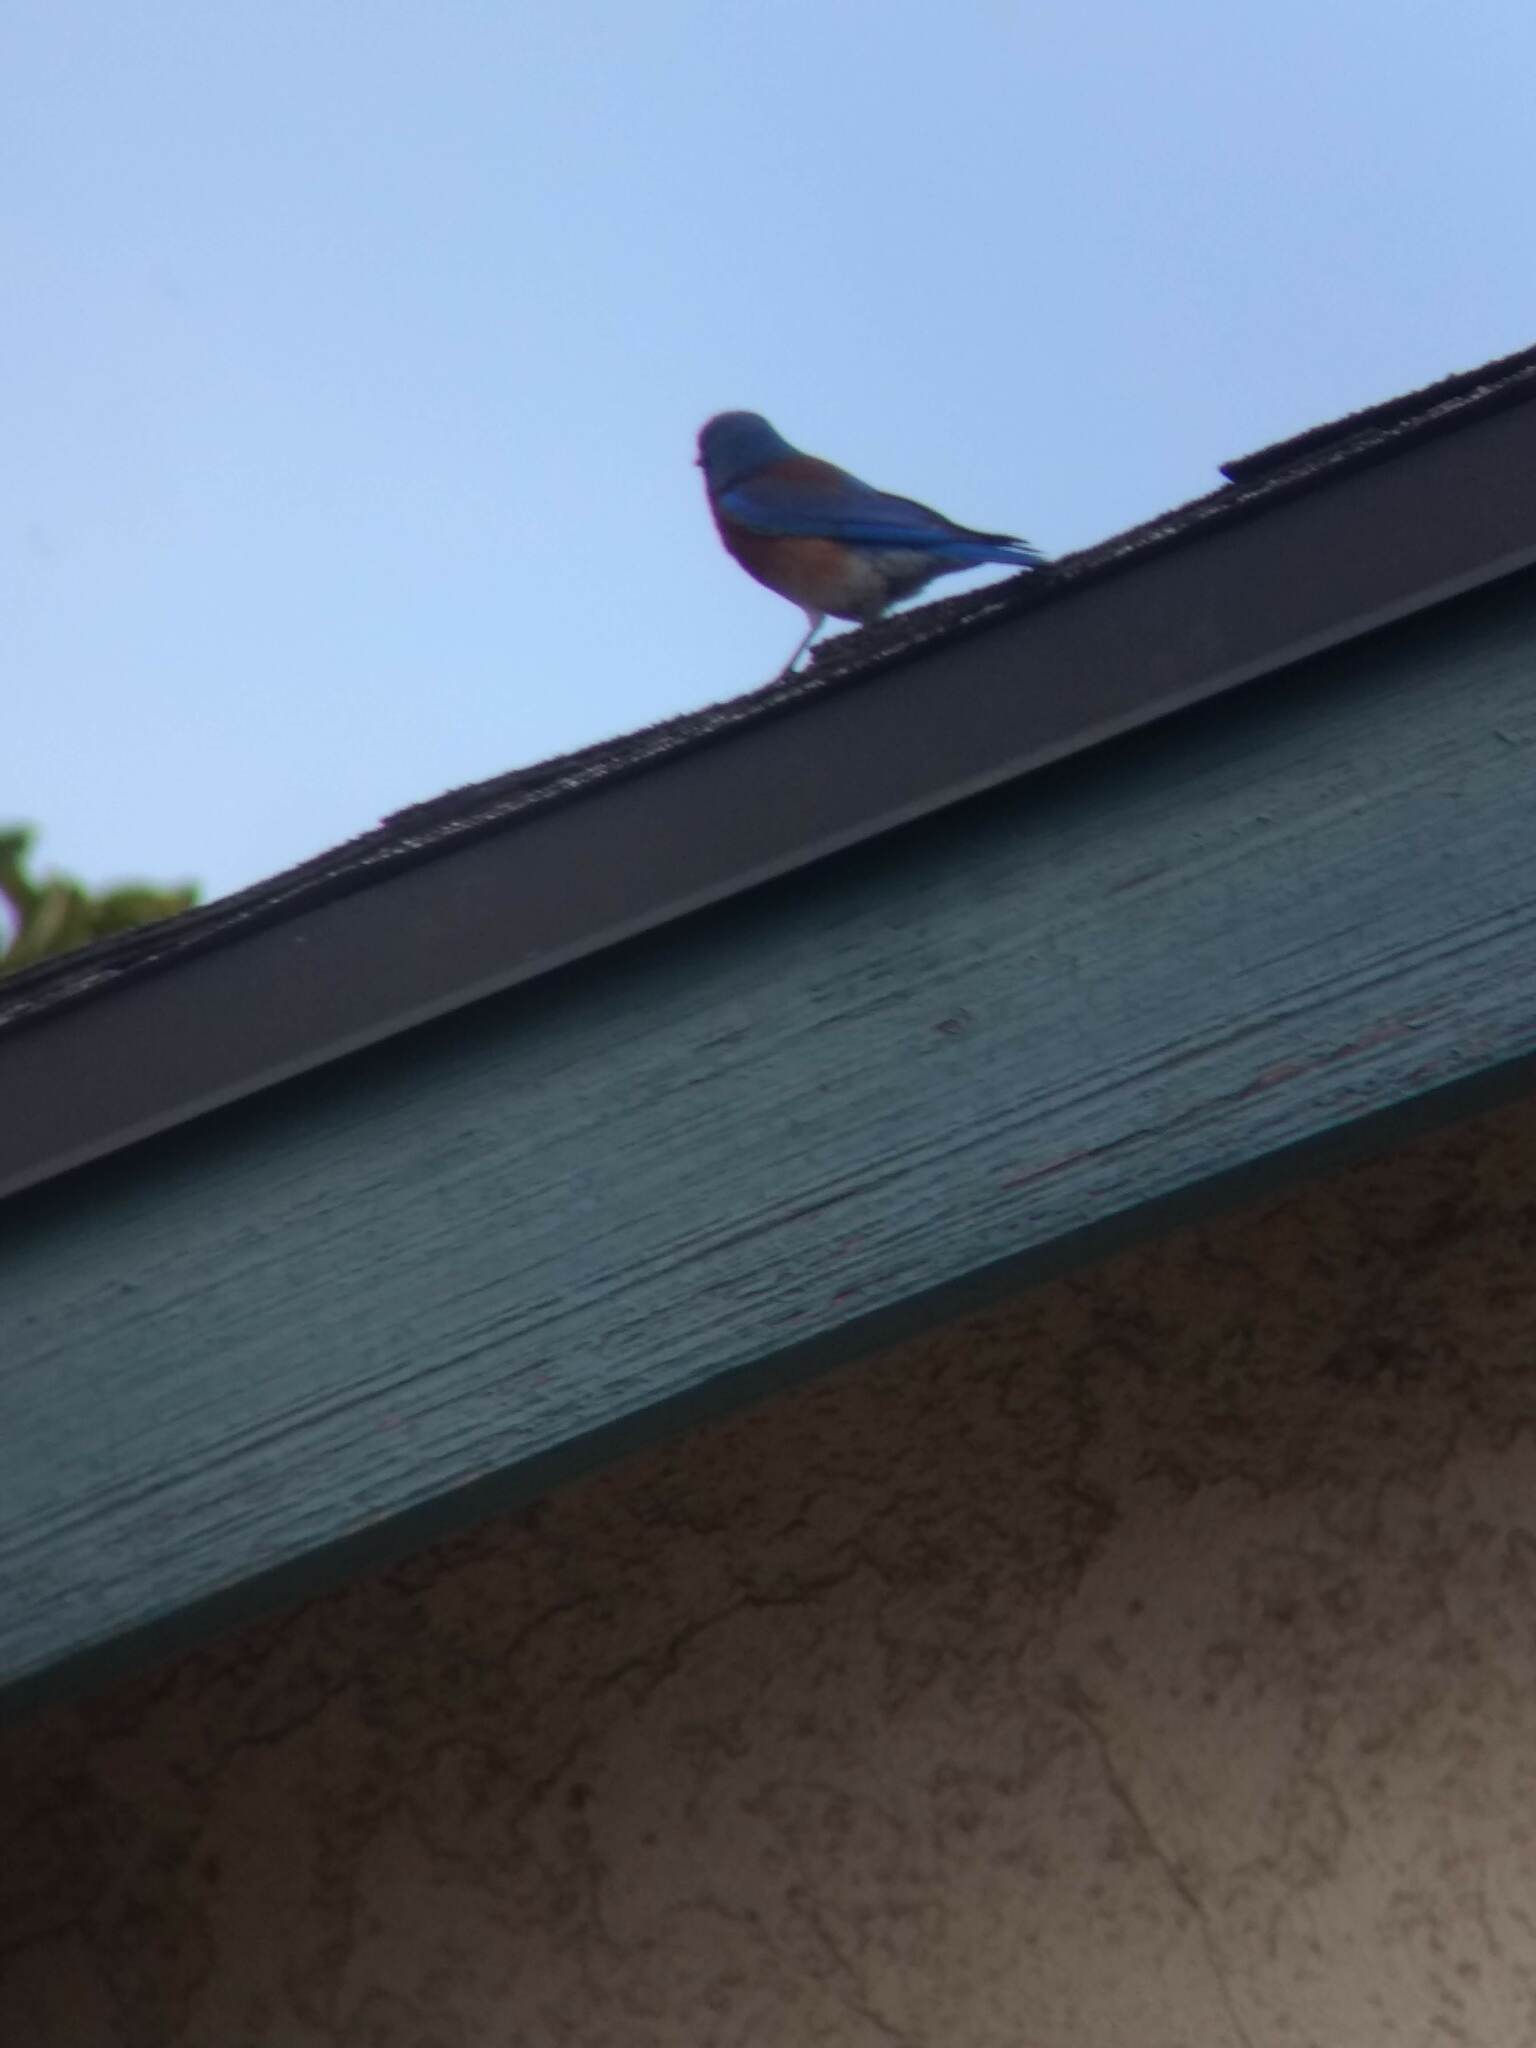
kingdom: Animalia
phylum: Chordata
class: Aves
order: Passeriformes
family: Turdidae
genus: Sialia
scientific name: Sialia mexicana
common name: Western bluebird
